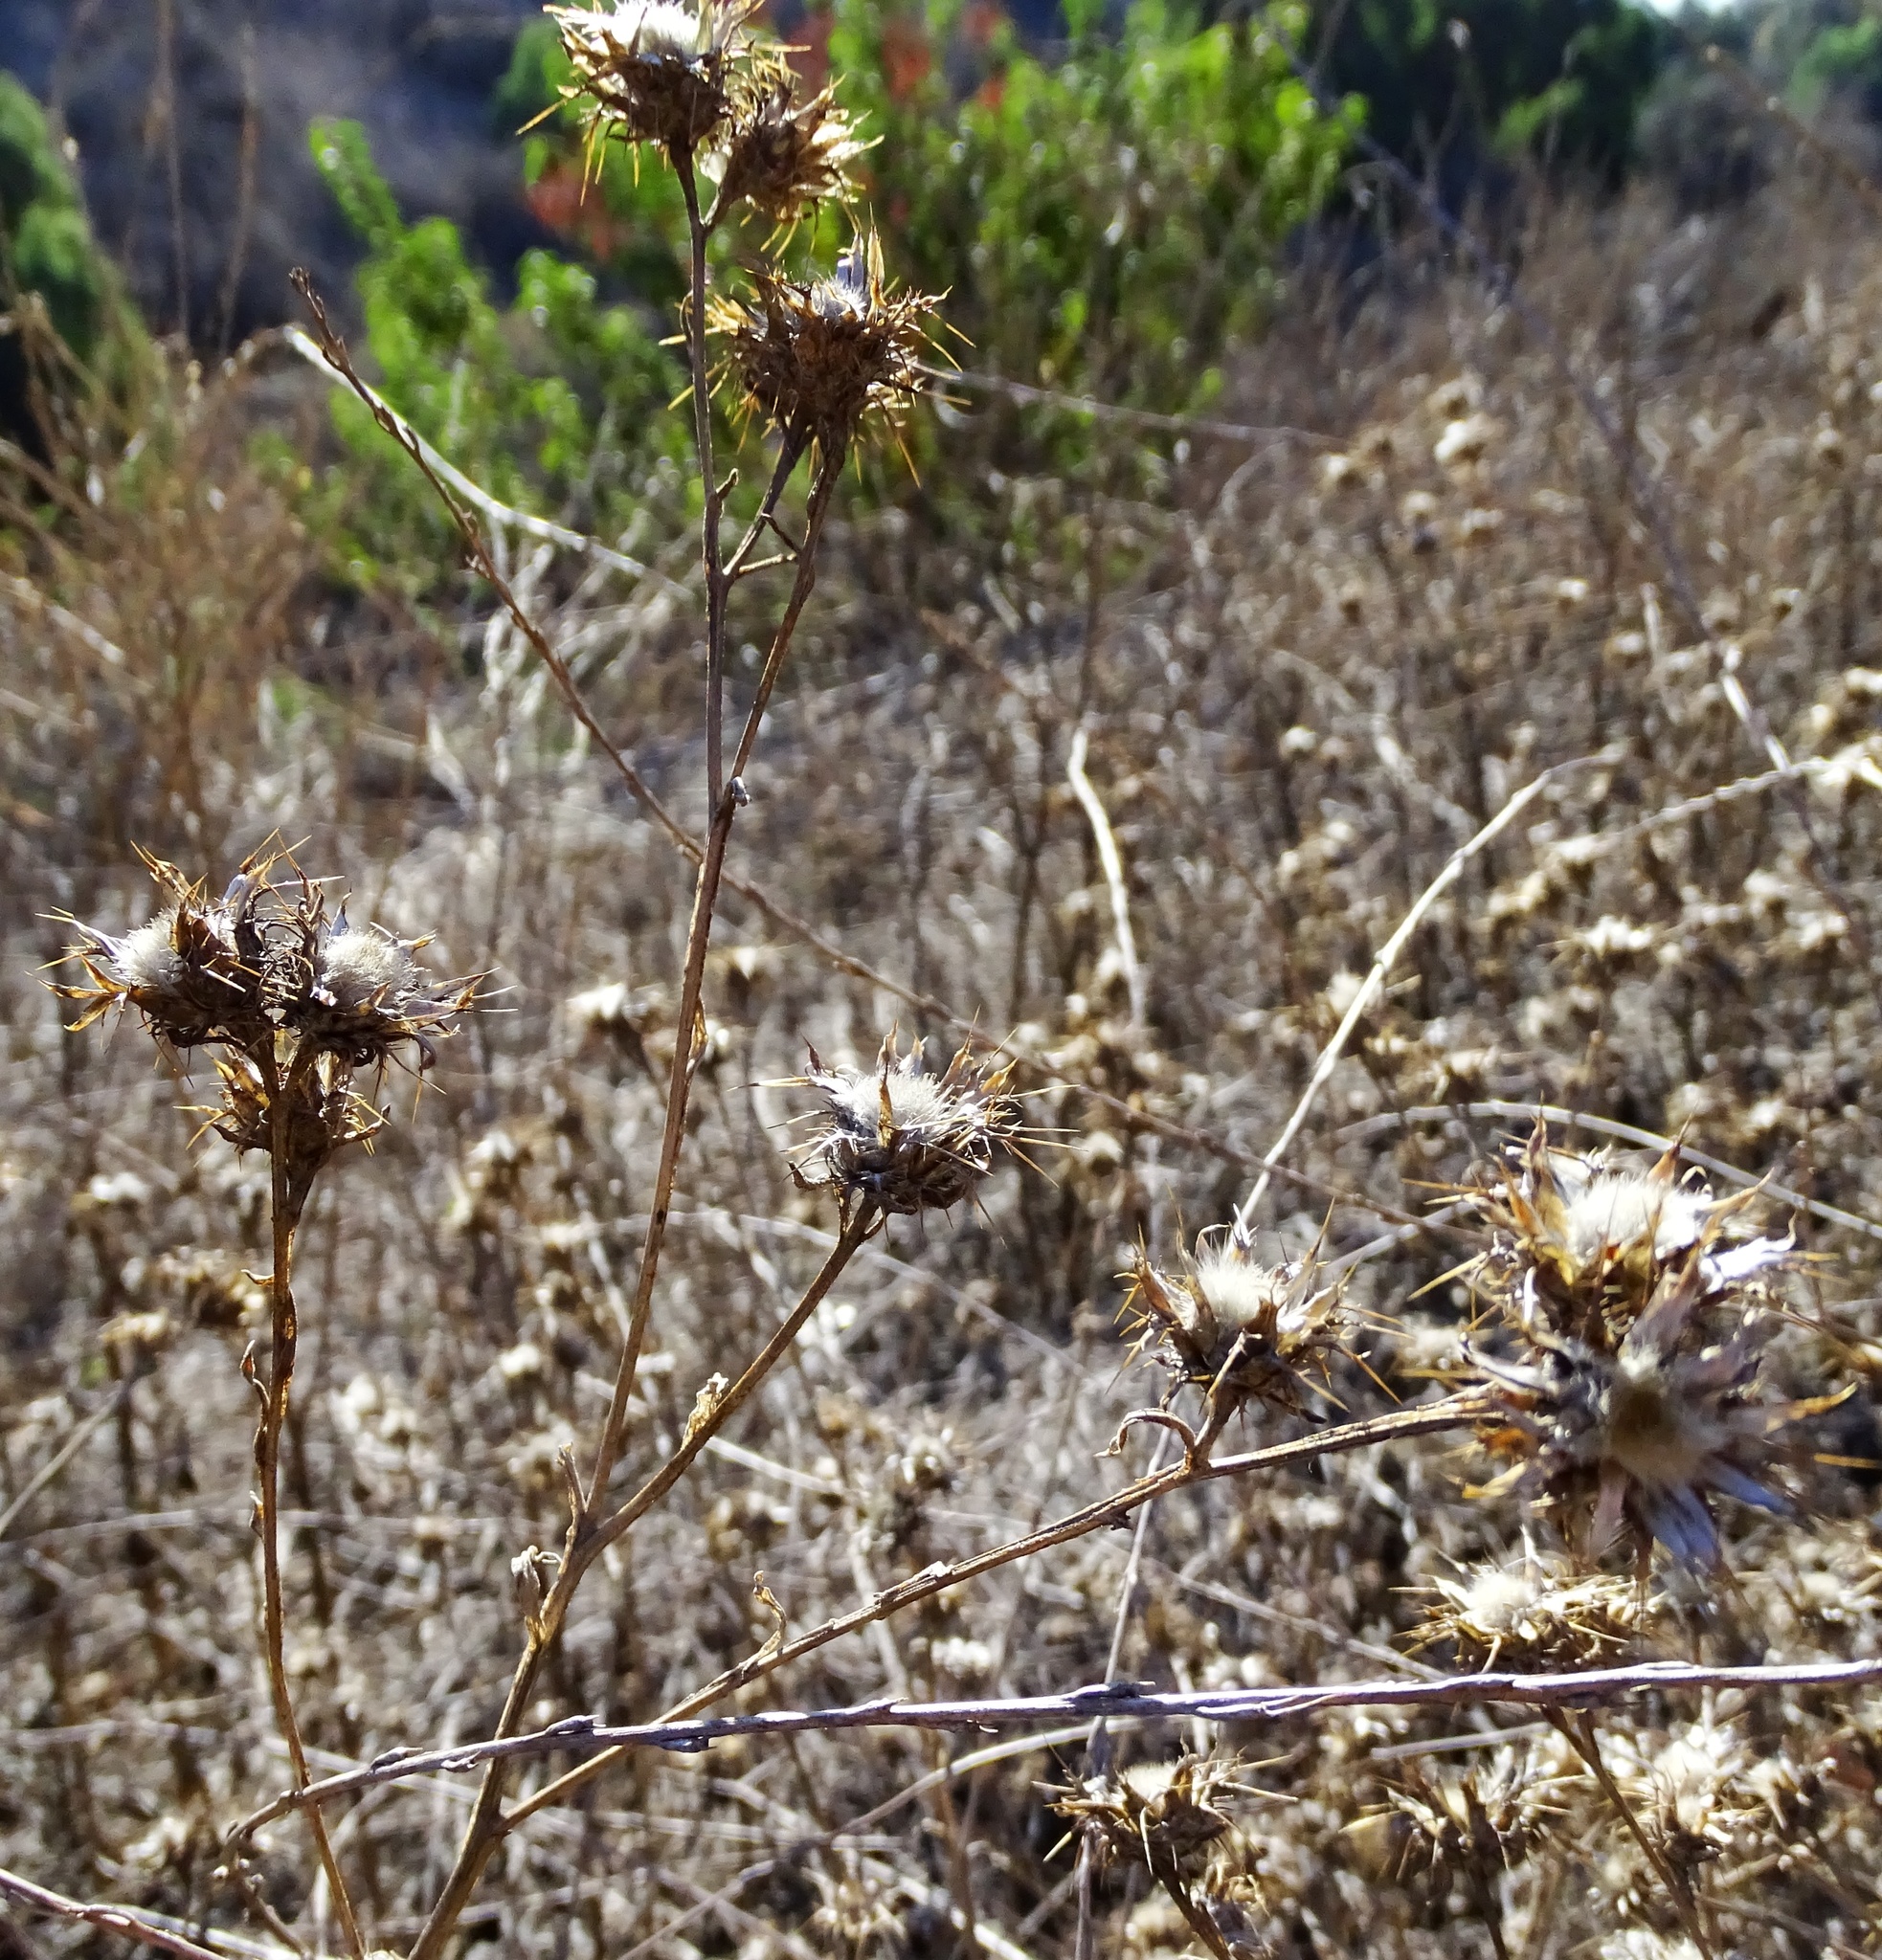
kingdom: Plantae
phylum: Tracheophyta
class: Magnoliopsida
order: Asterales
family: Asteraceae
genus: Centaurea
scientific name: Centaurea melitensis
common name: Maltese star-thistle
